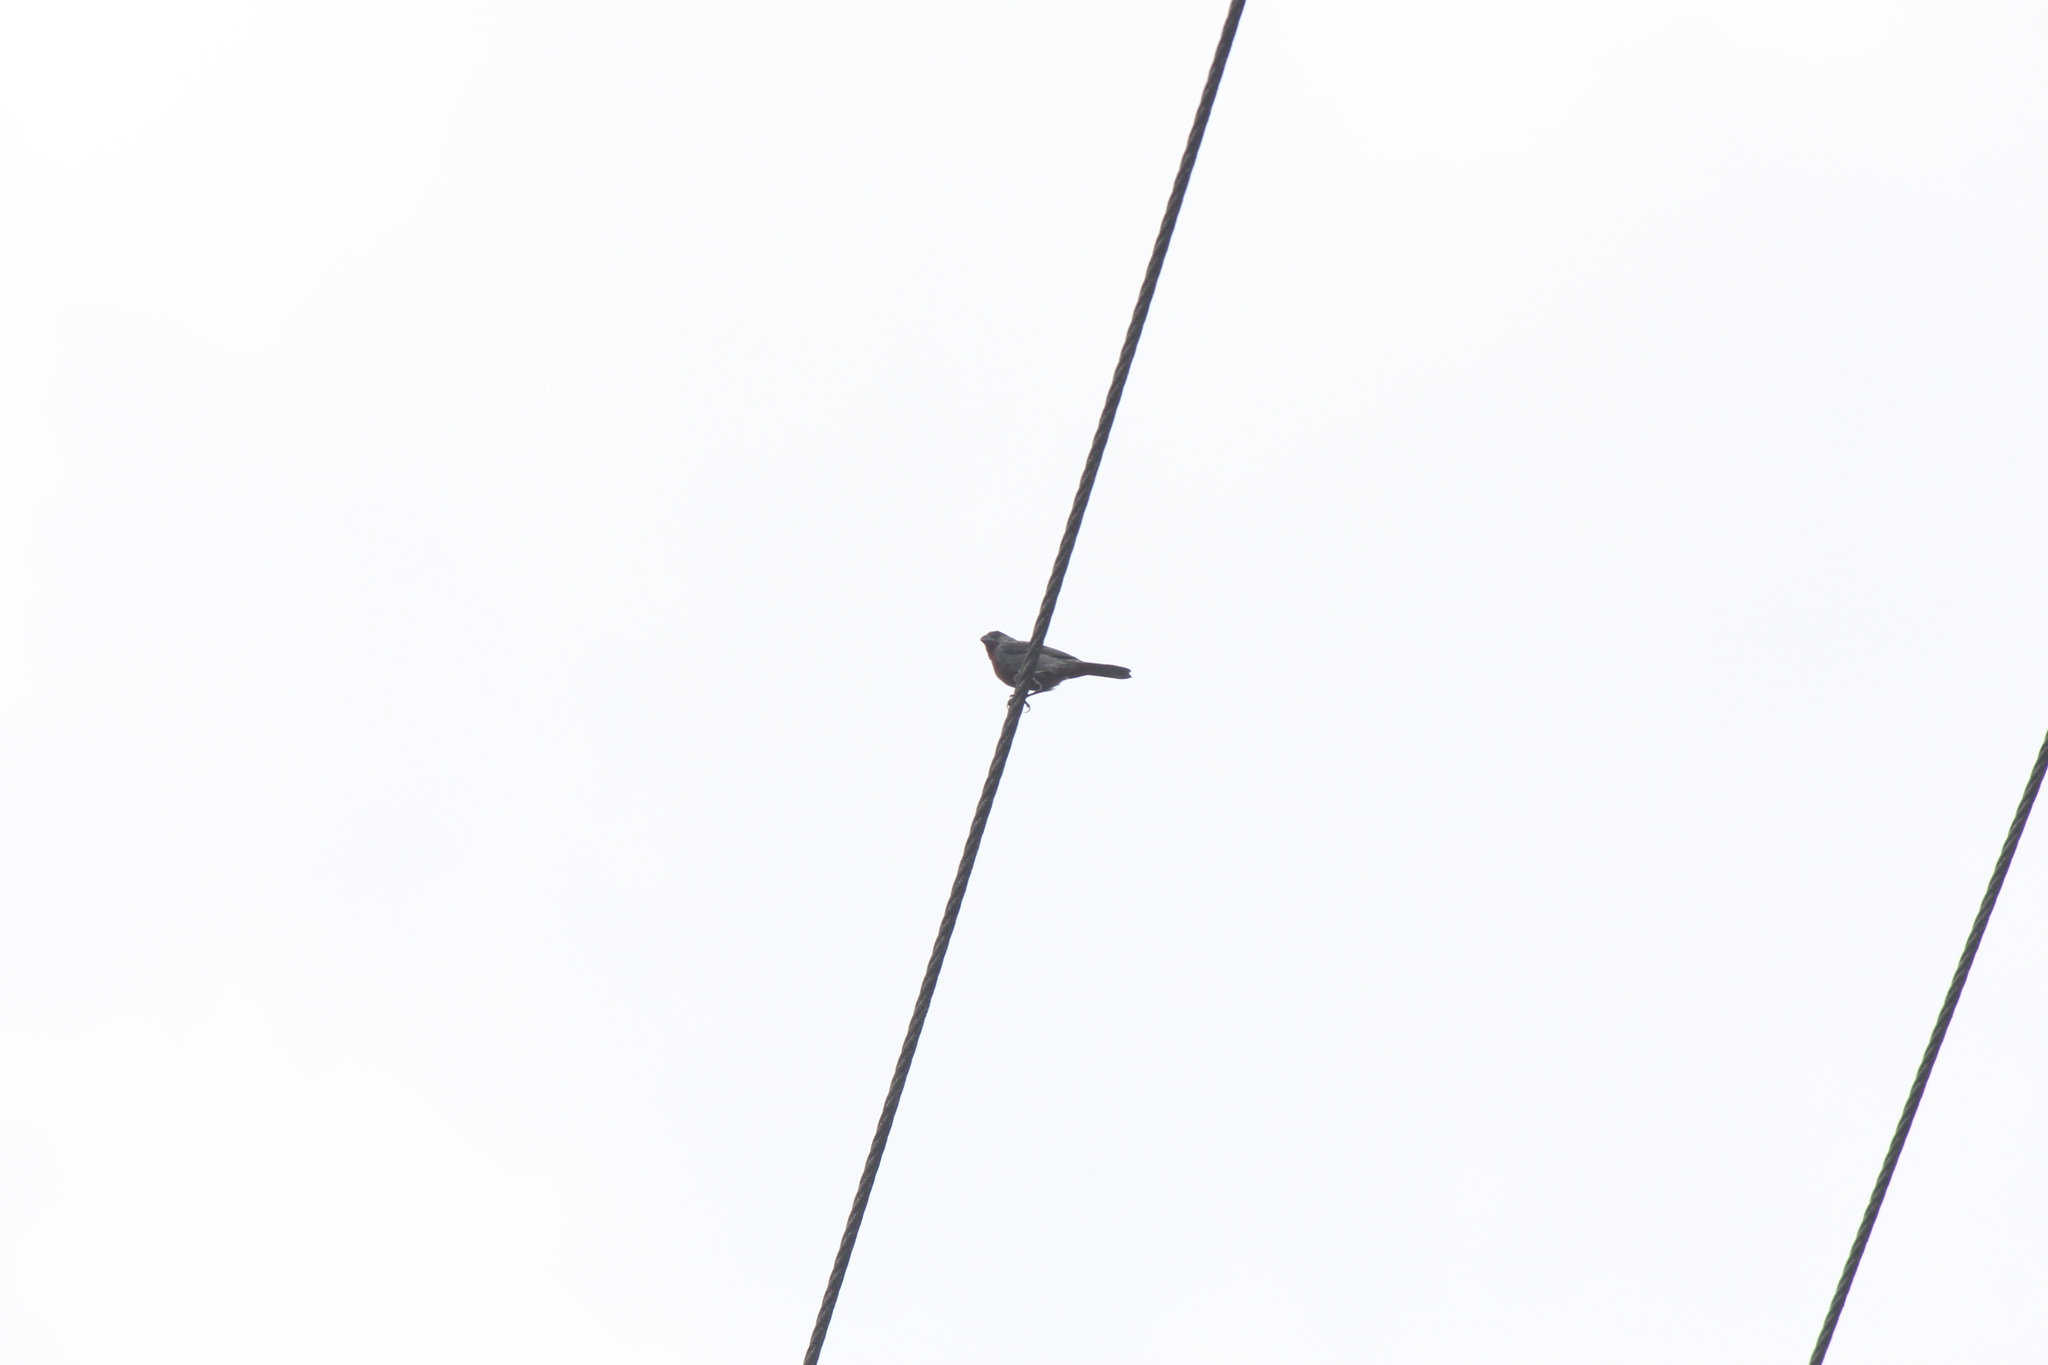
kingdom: Animalia
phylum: Chordata
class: Aves
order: Passeriformes
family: Thraupidae
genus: Sporophila
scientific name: Sporophila castaneiventris
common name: Chestnut-bellied seedeater
